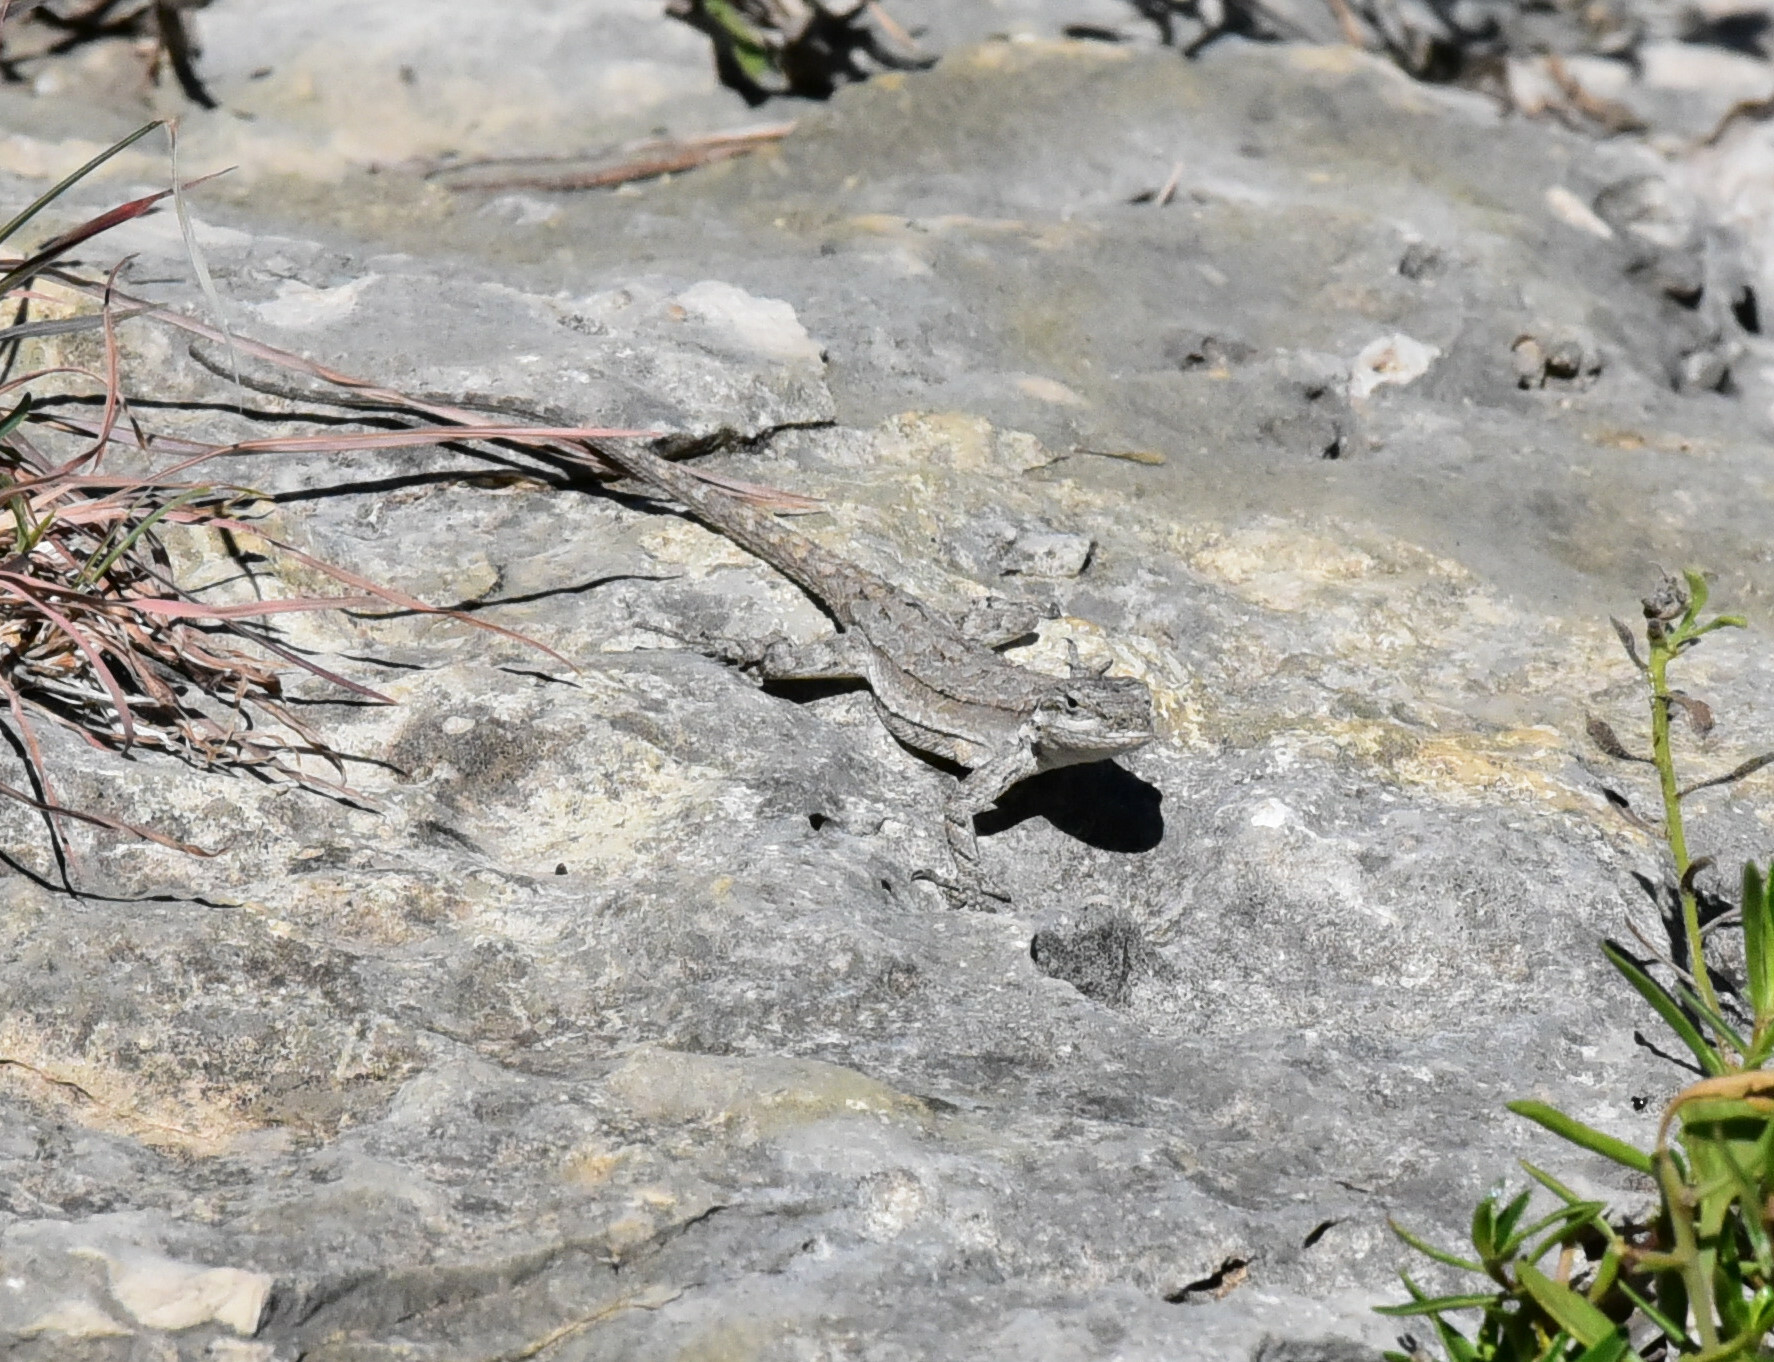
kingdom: Animalia
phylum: Chordata
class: Squamata
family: Phrynosomatidae
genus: Urosaurus
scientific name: Urosaurus ornatus
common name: Ornate tree lizard
